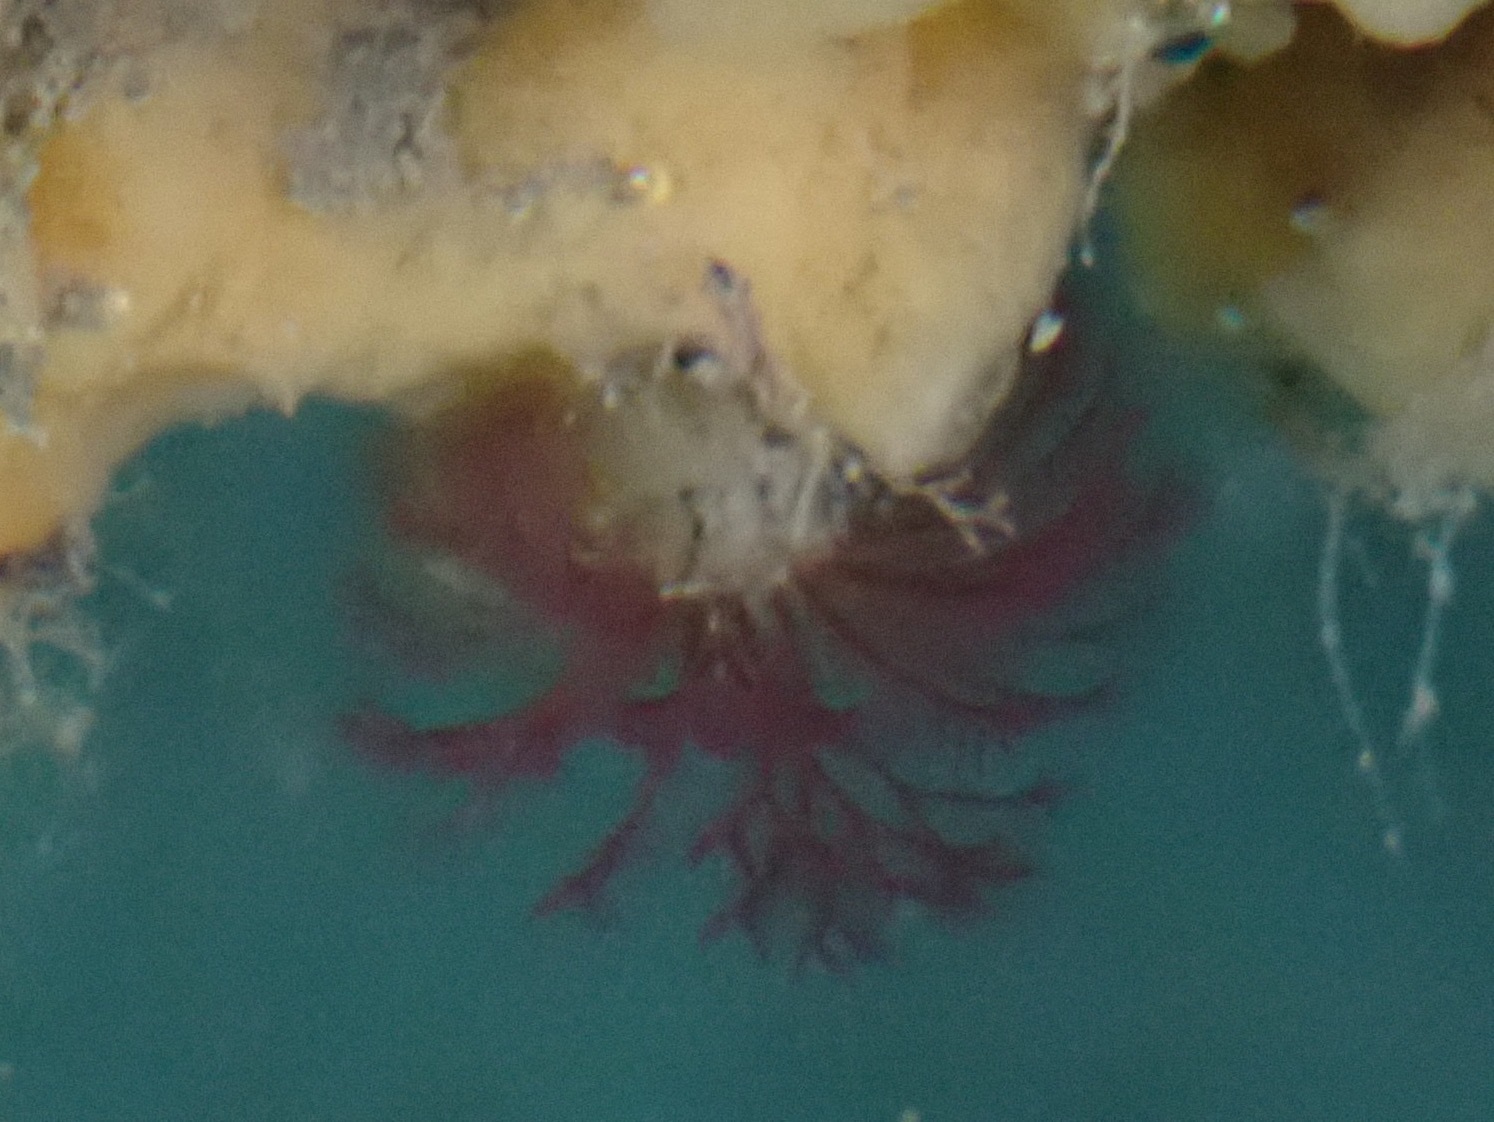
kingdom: Animalia
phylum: Annelida
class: Polychaeta
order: Sabellida
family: Sabellidae
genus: Schizobranchia
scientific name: Schizobranchia insignis
